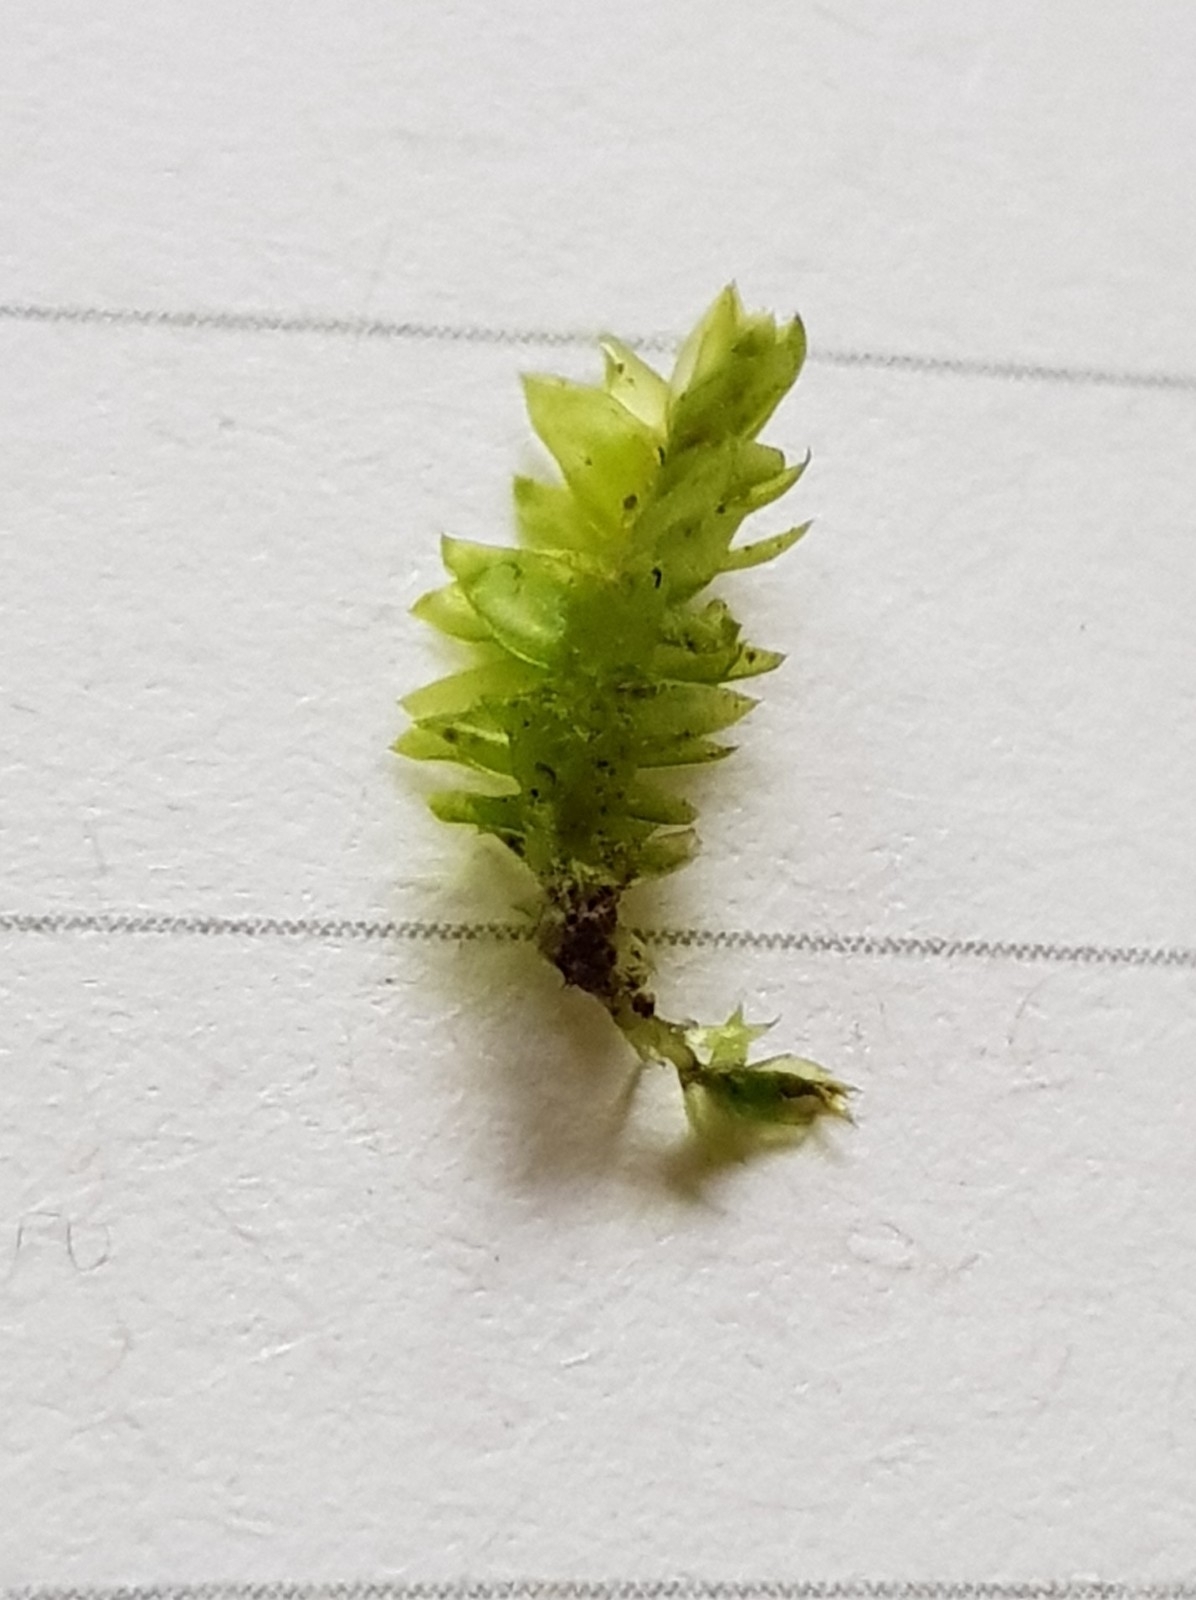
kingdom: Plantae
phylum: Bryophyta
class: Bryopsida
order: Hypnales
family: Plagiotheciaceae
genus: Plagiothecium
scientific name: Plagiothecium nemorale
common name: Woodsy silk-moss
